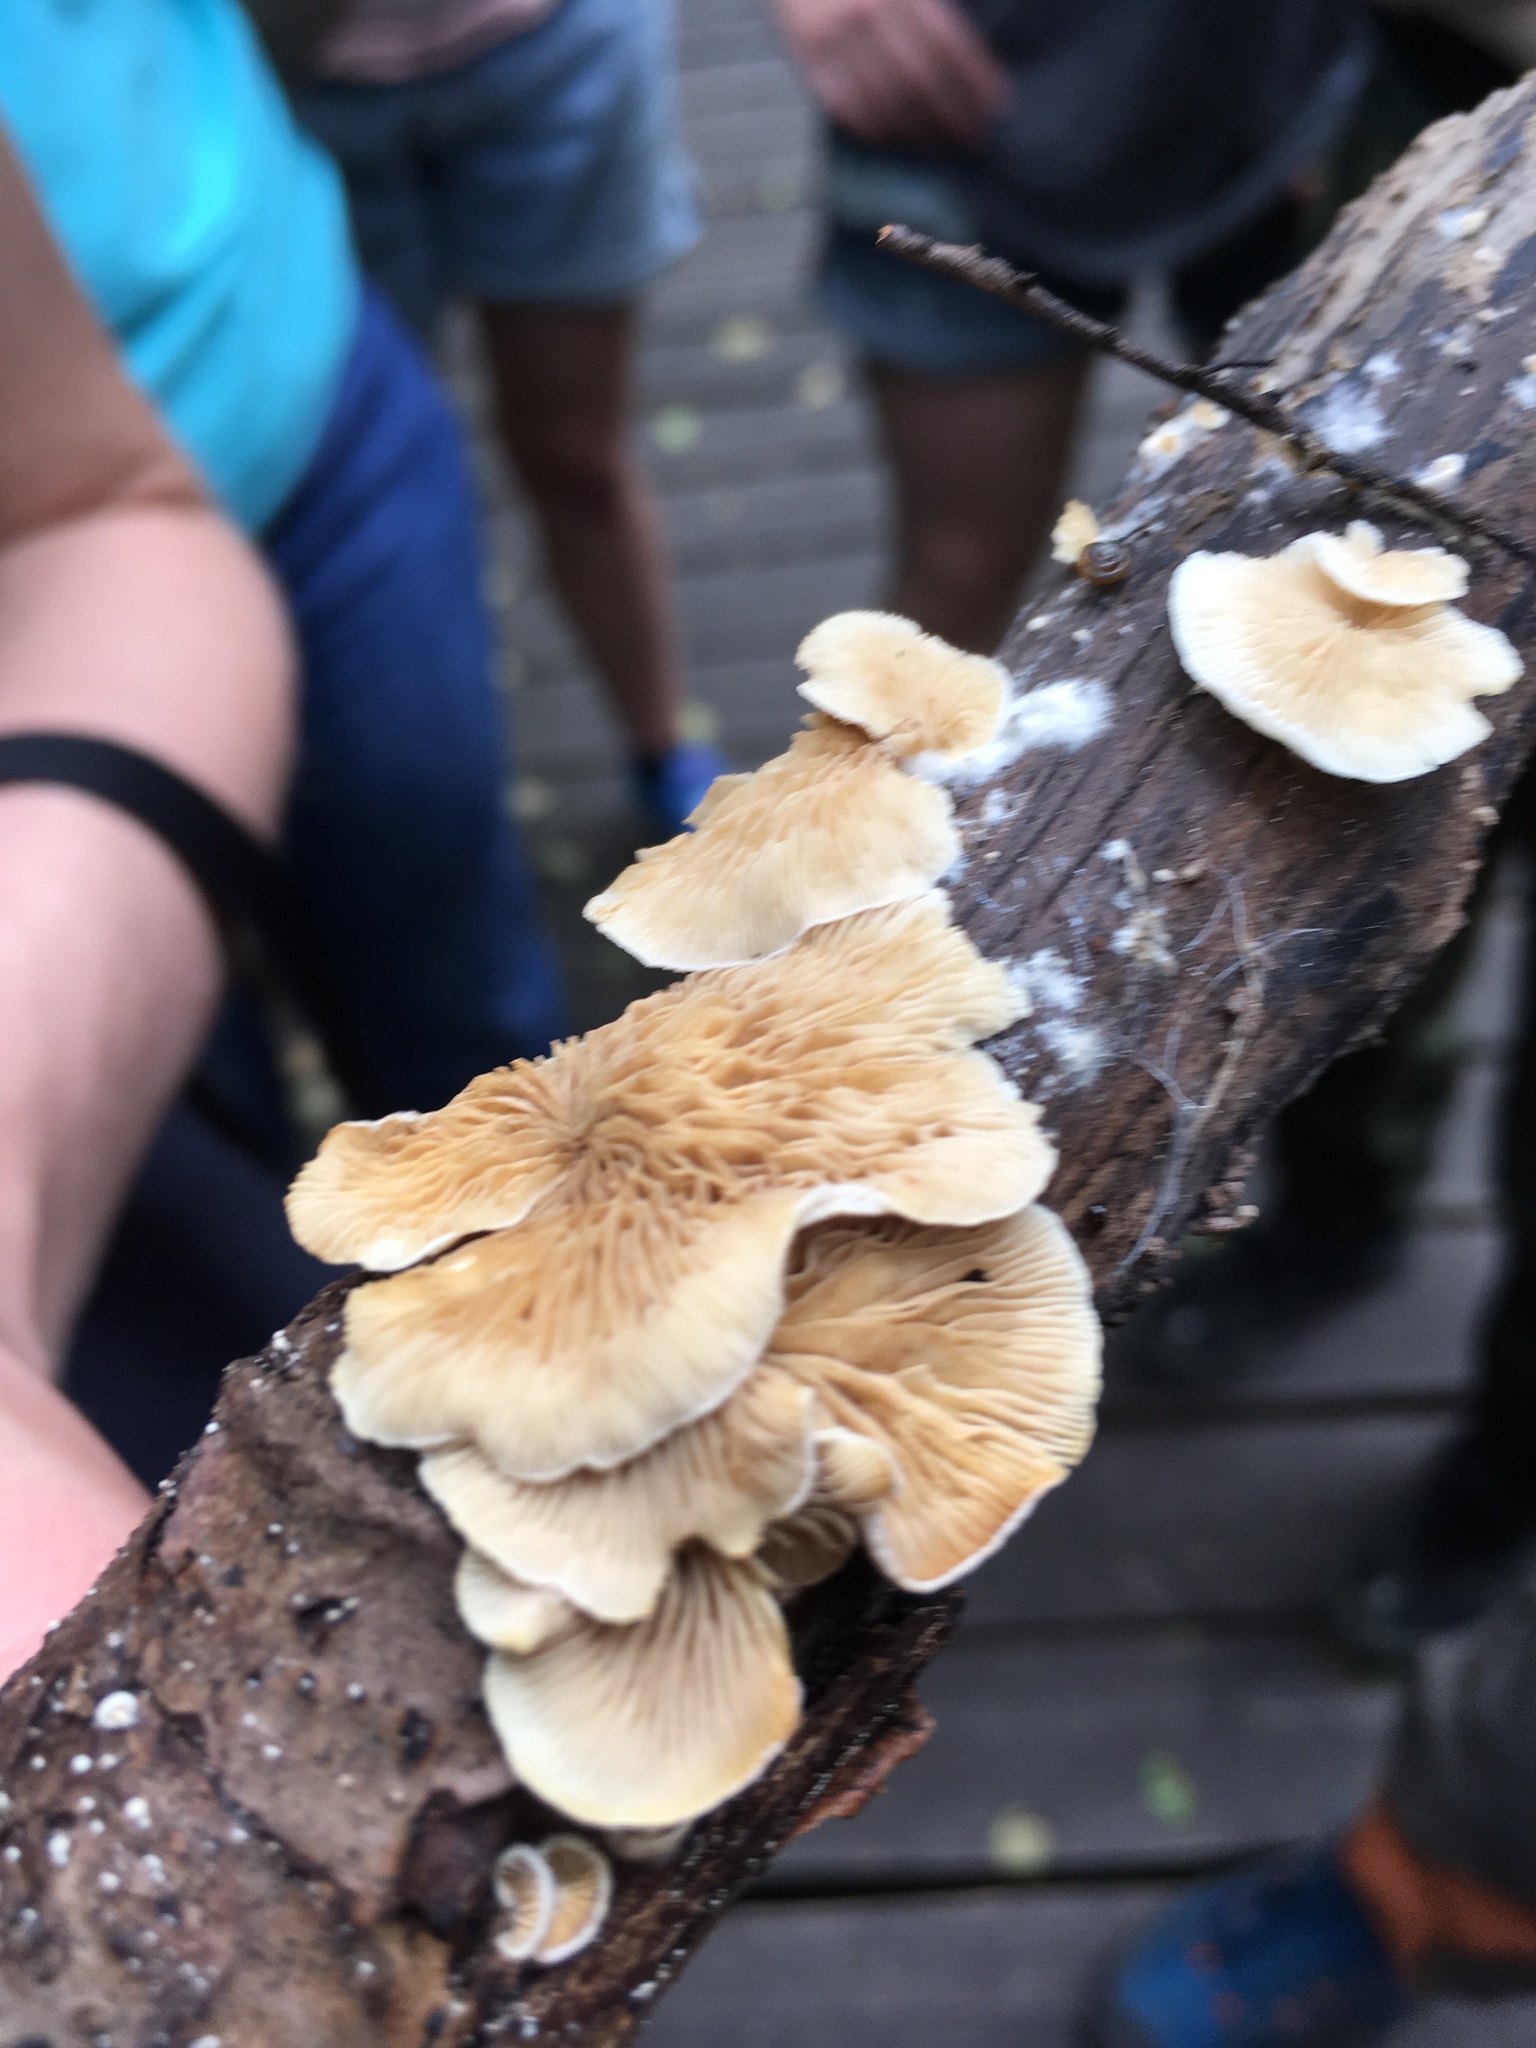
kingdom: Fungi
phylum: Basidiomycota
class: Agaricomycetes
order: Agaricales
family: Crepidotaceae
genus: Crepidotus
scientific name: Crepidotus mollis
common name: Peeling oysterling
